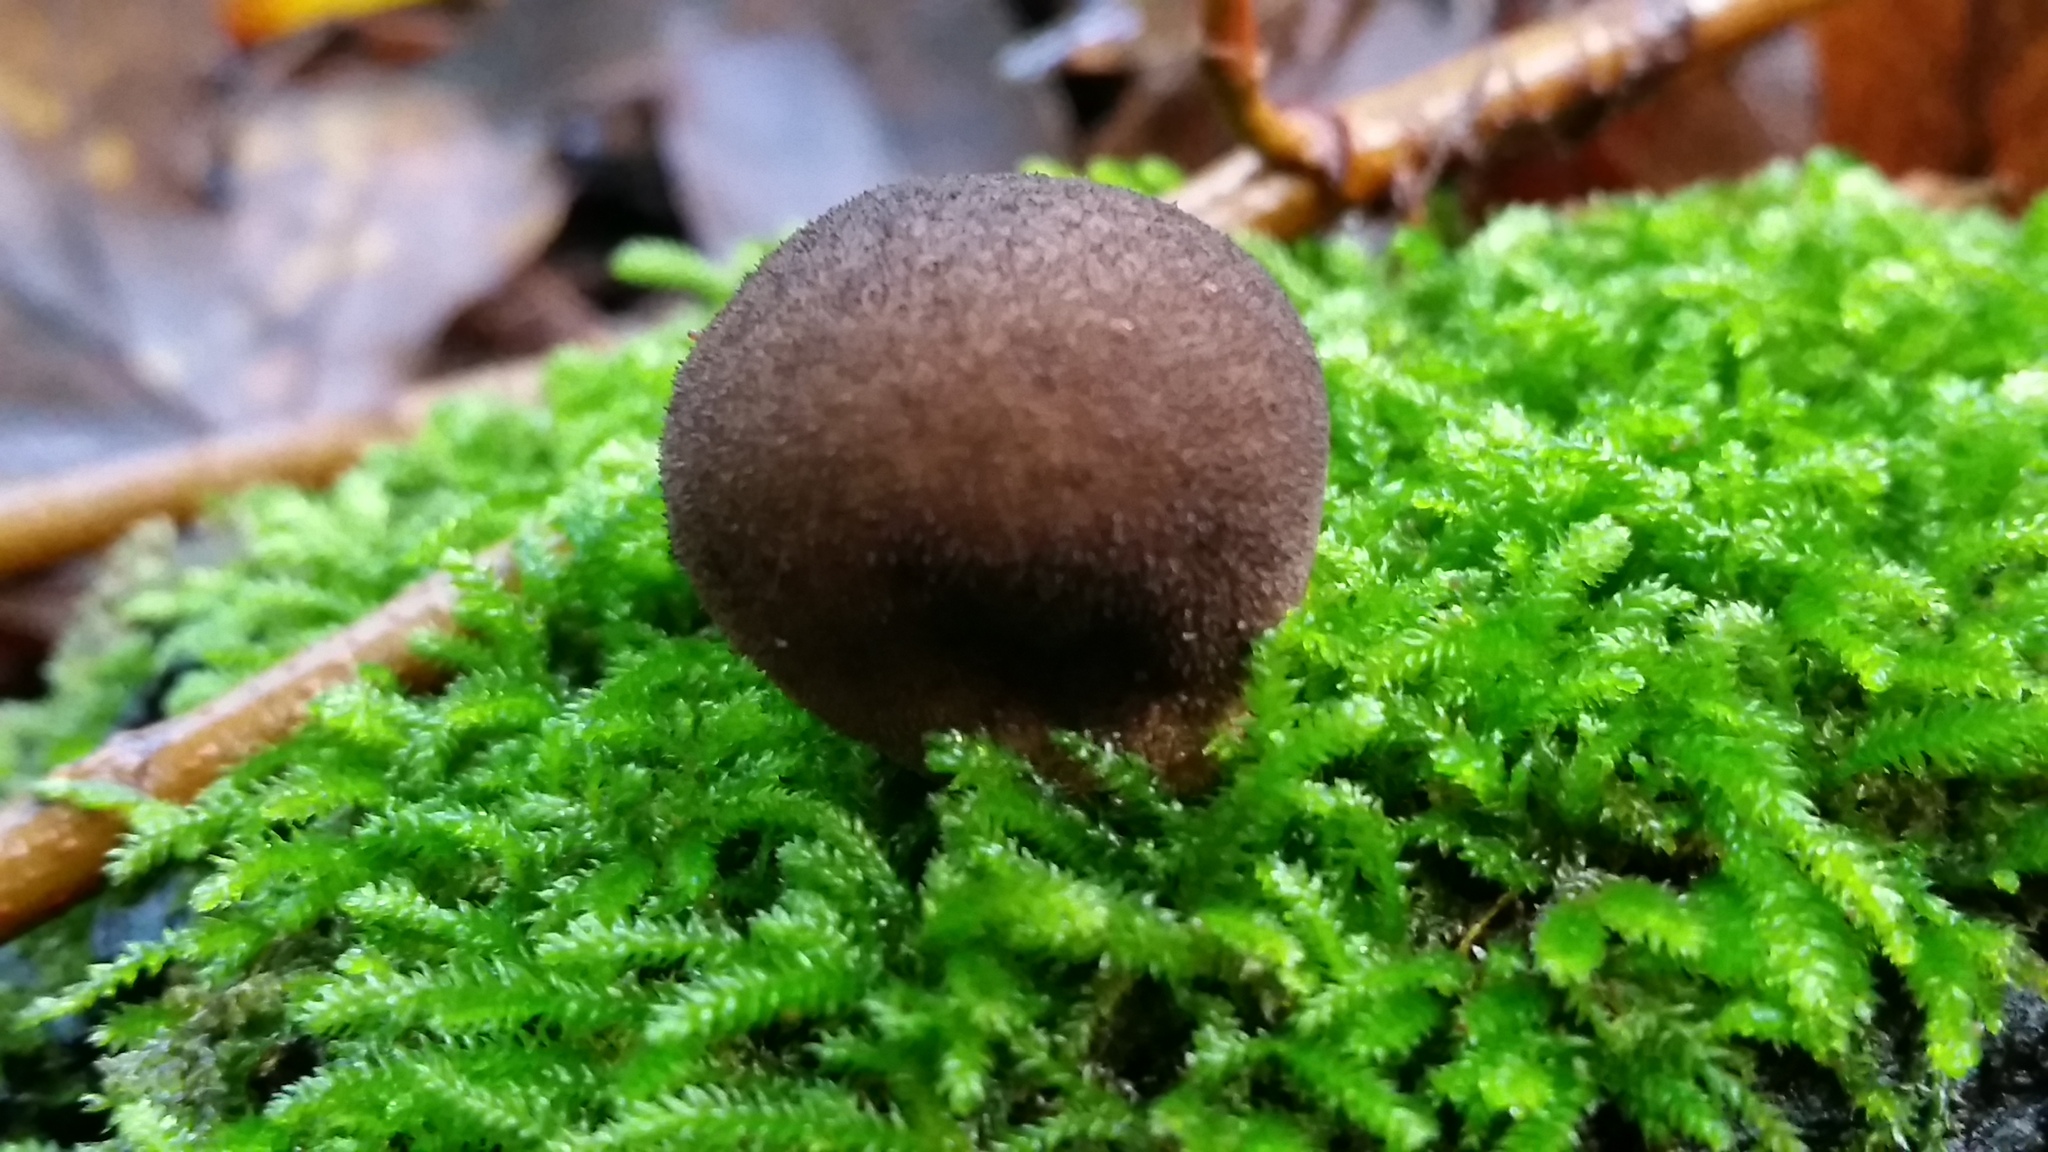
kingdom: Fungi
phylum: Basidiomycota
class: Agaricomycetes
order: Agaricales
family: Lycoperdaceae
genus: Lycoperdon
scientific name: Lycoperdon umbrinum
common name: Umber-brown puffball
